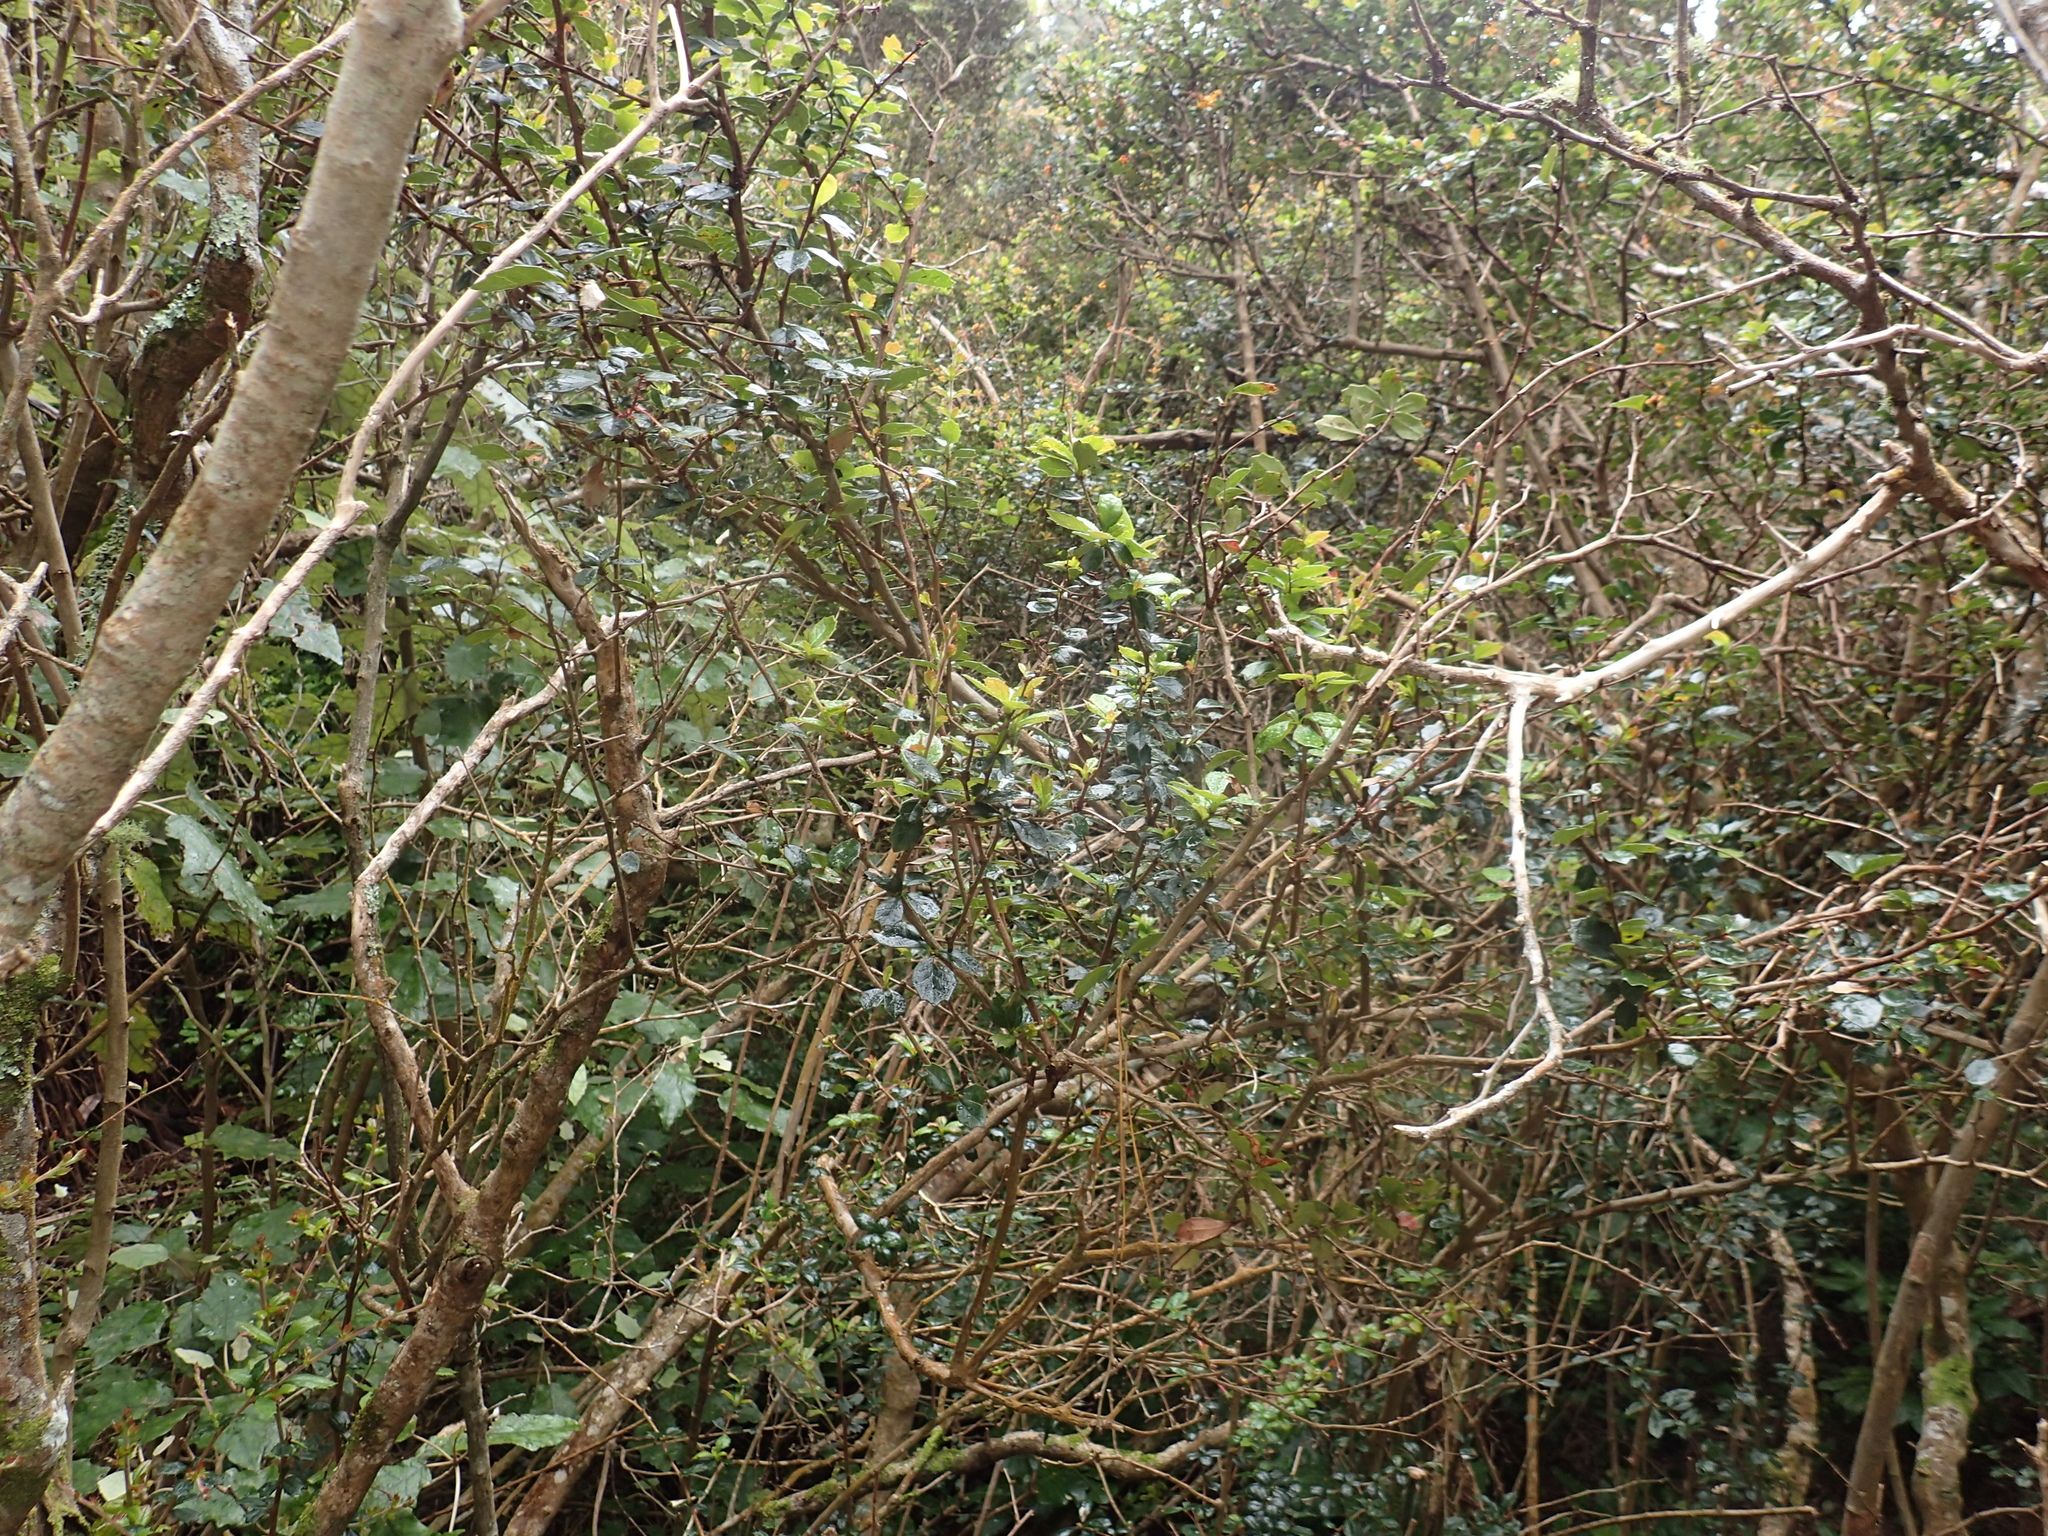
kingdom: Plantae
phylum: Tracheophyta
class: Magnoliopsida
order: Ranunculales
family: Berberidaceae
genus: Berberis
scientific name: Berberis darwinii
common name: Darwin's barberry
